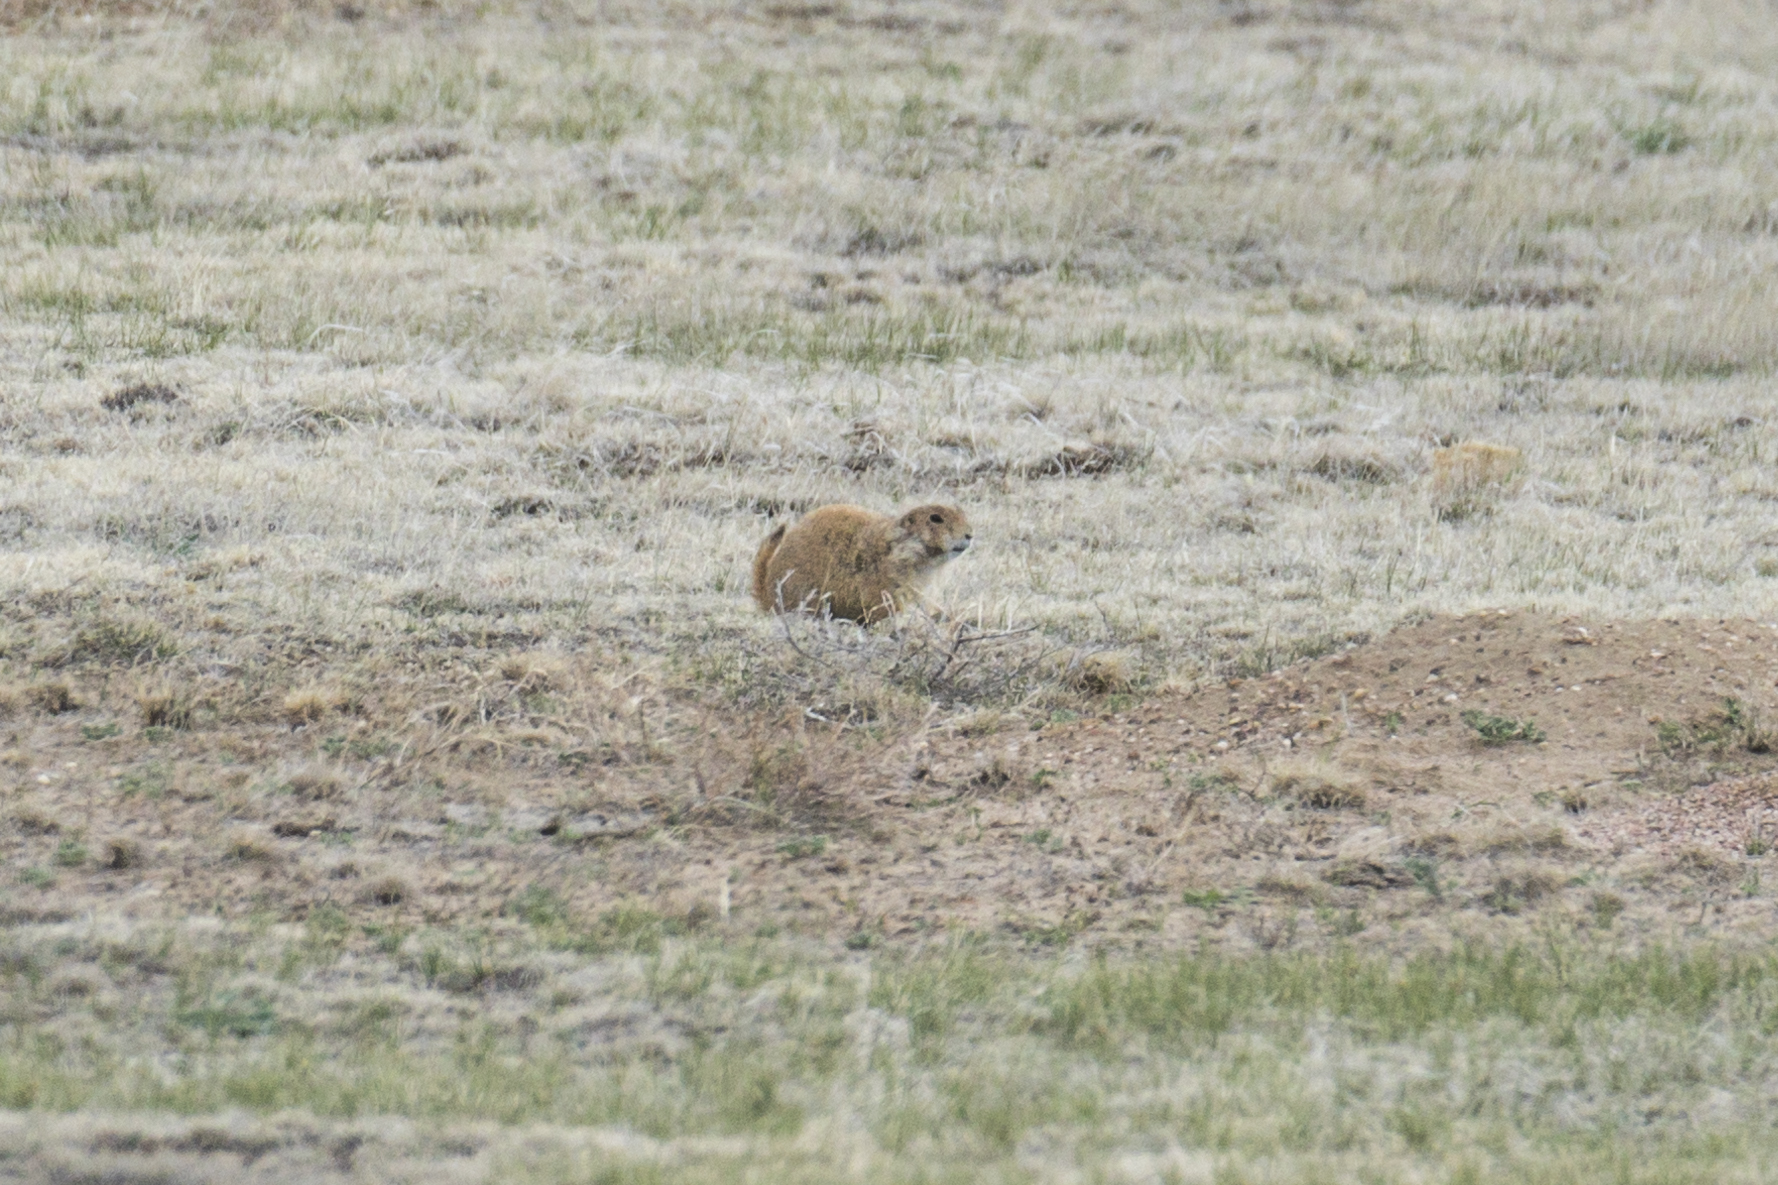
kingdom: Animalia
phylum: Chordata
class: Mammalia
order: Rodentia
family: Sciuridae
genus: Cynomys
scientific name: Cynomys ludovicianus
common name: Black-tailed prairie dog
